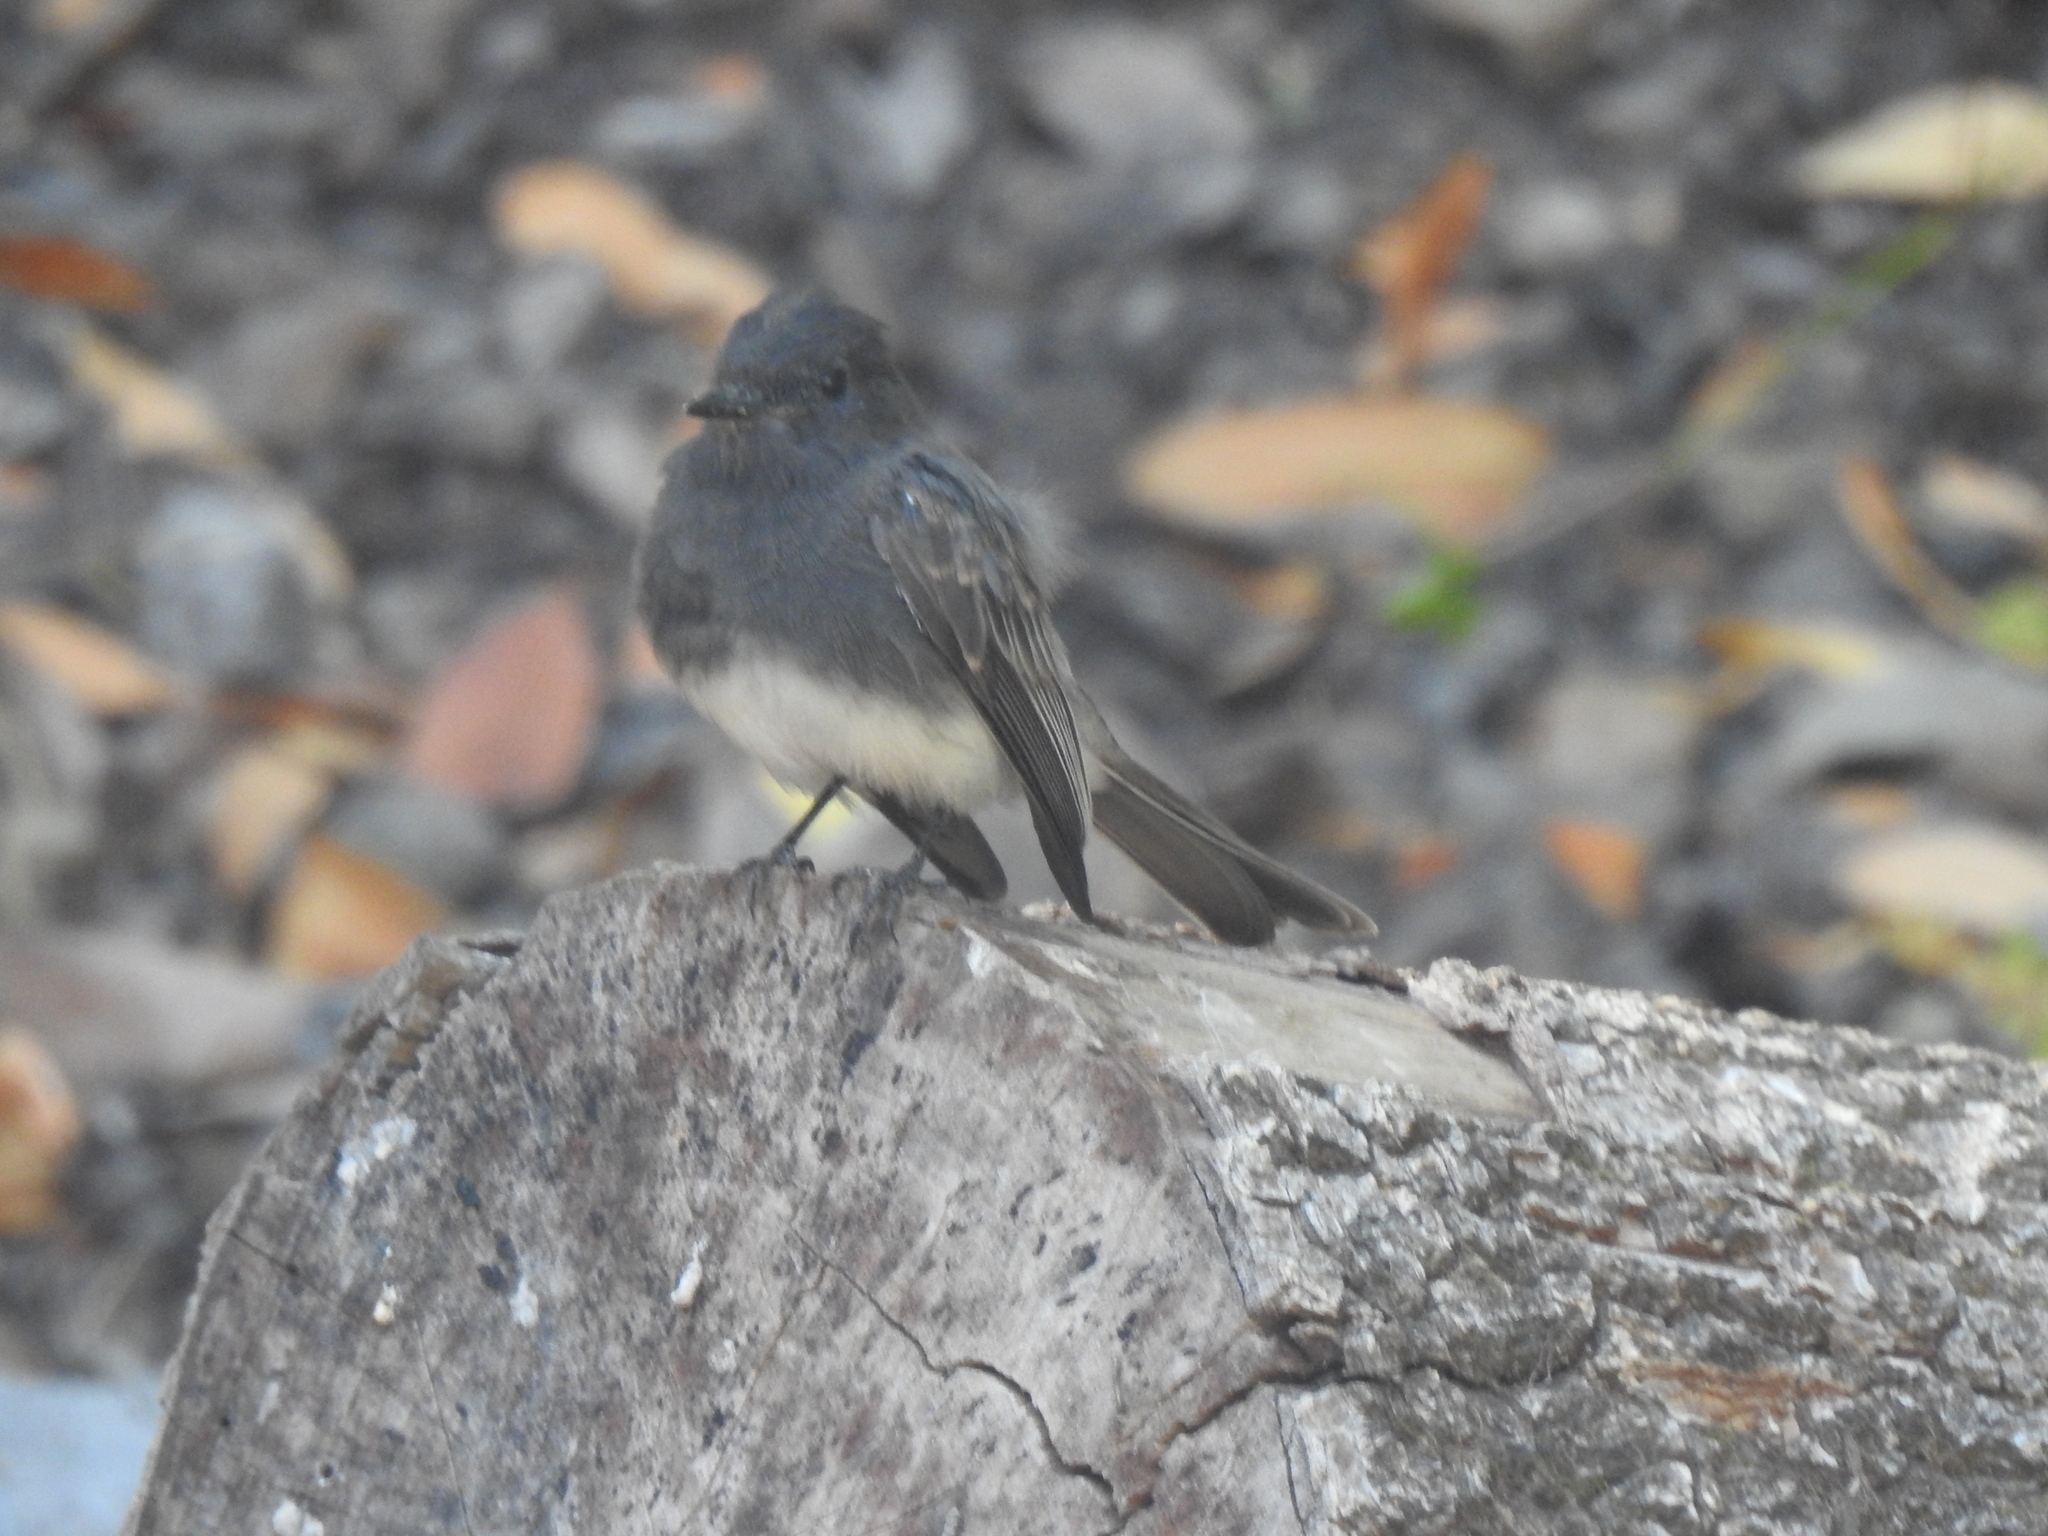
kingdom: Animalia
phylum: Chordata
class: Aves
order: Passeriformes
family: Tyrannidae
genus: Sayornis
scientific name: Sayornis nigricans
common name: Black phoebe
